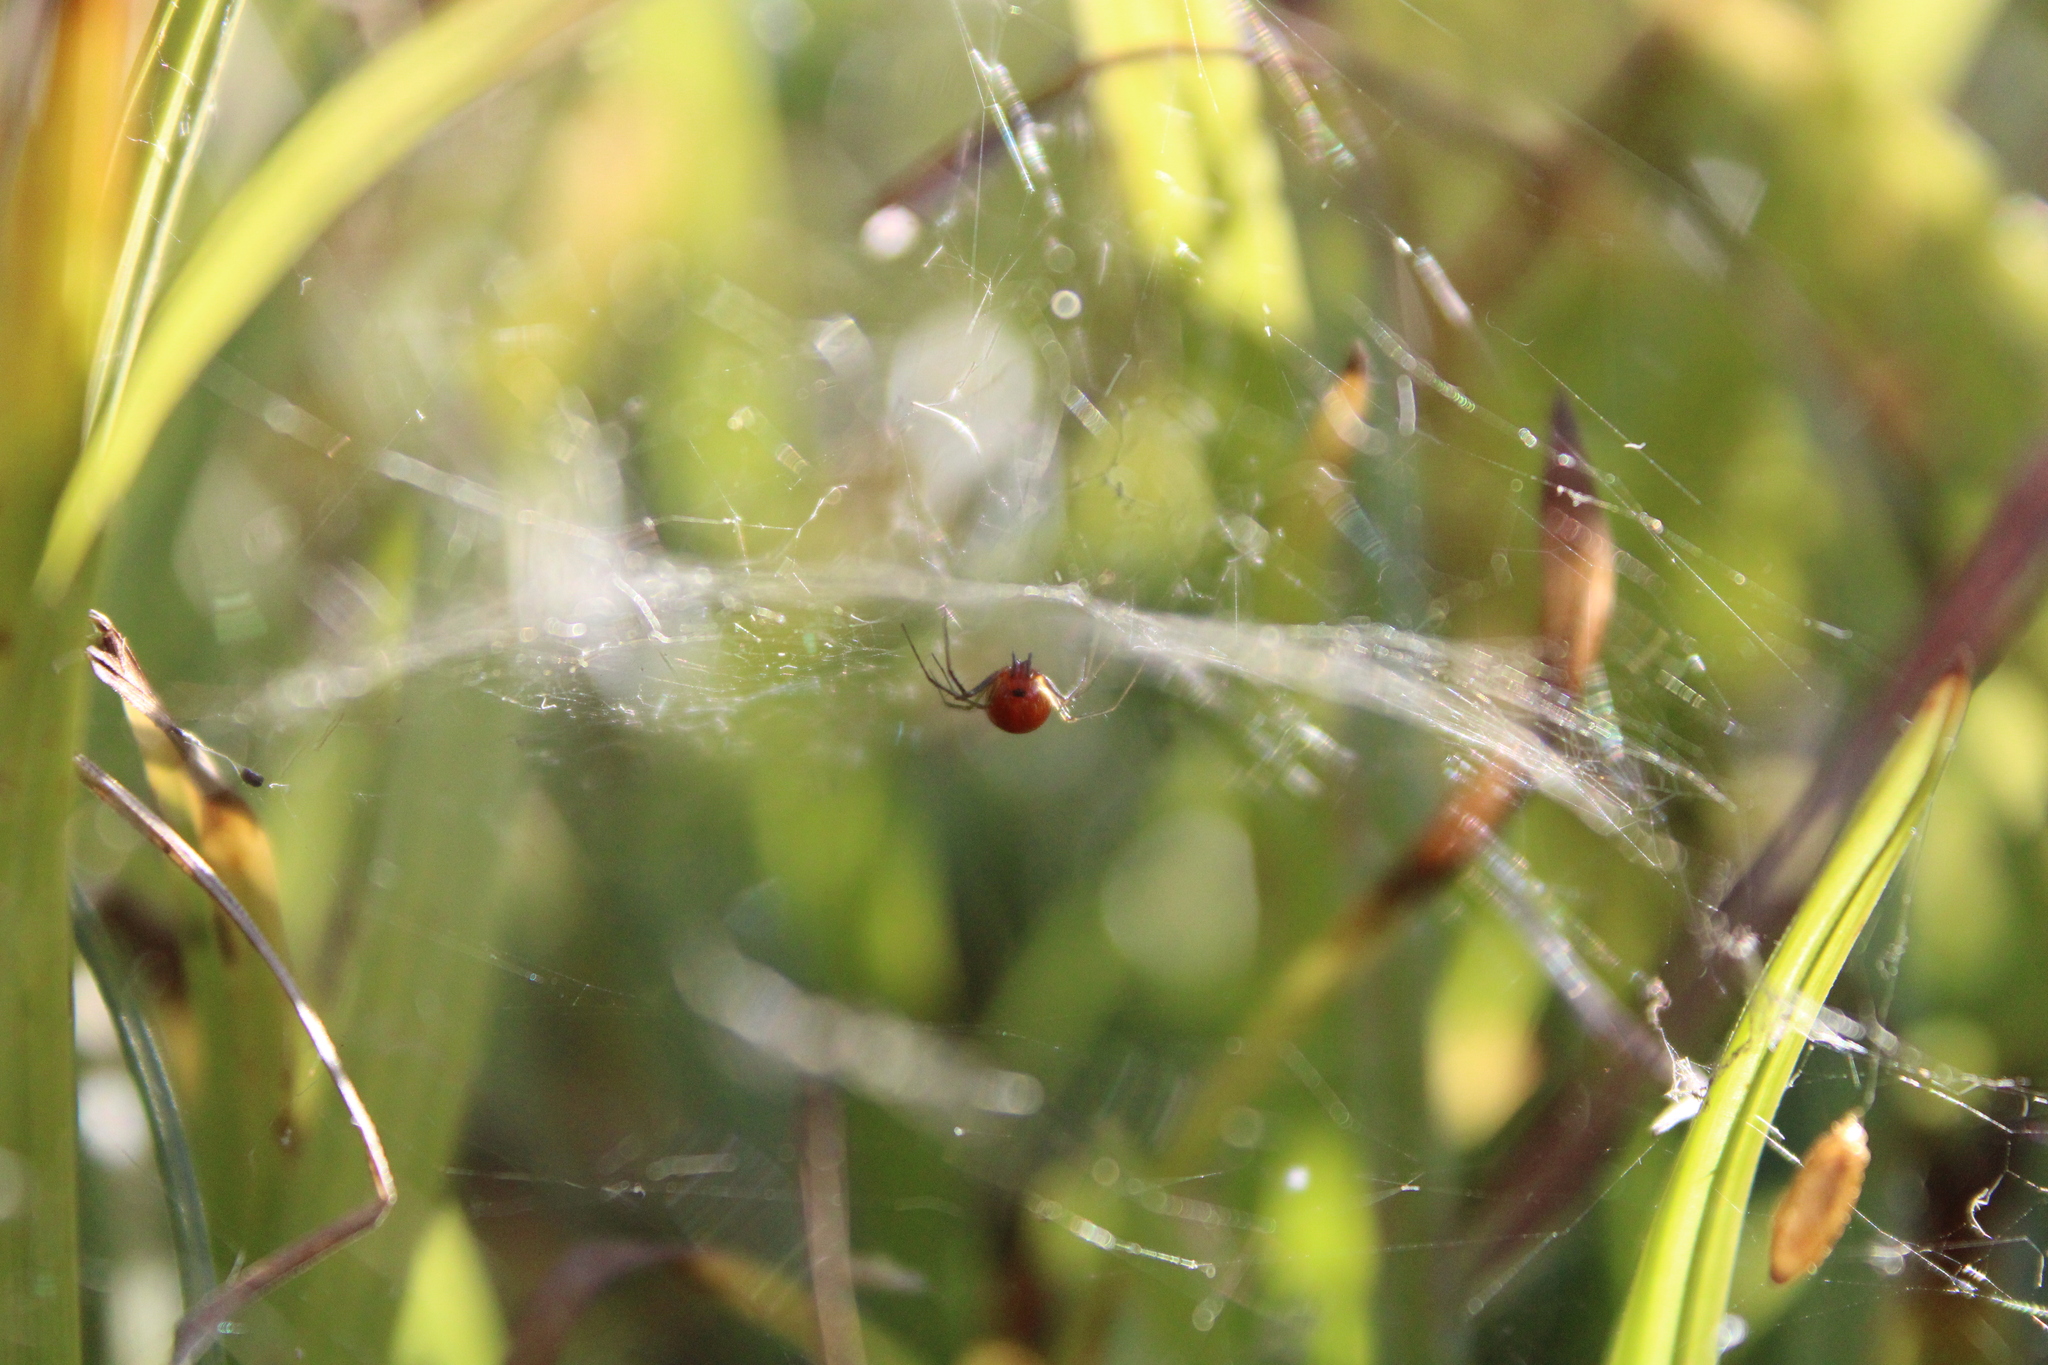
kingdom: Animalia
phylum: Arthropoda
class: Arachnida
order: Araneae
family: Linyphiidae
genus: Florinda
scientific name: Florinda coccinea
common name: Black-tailed red sheetweaver
